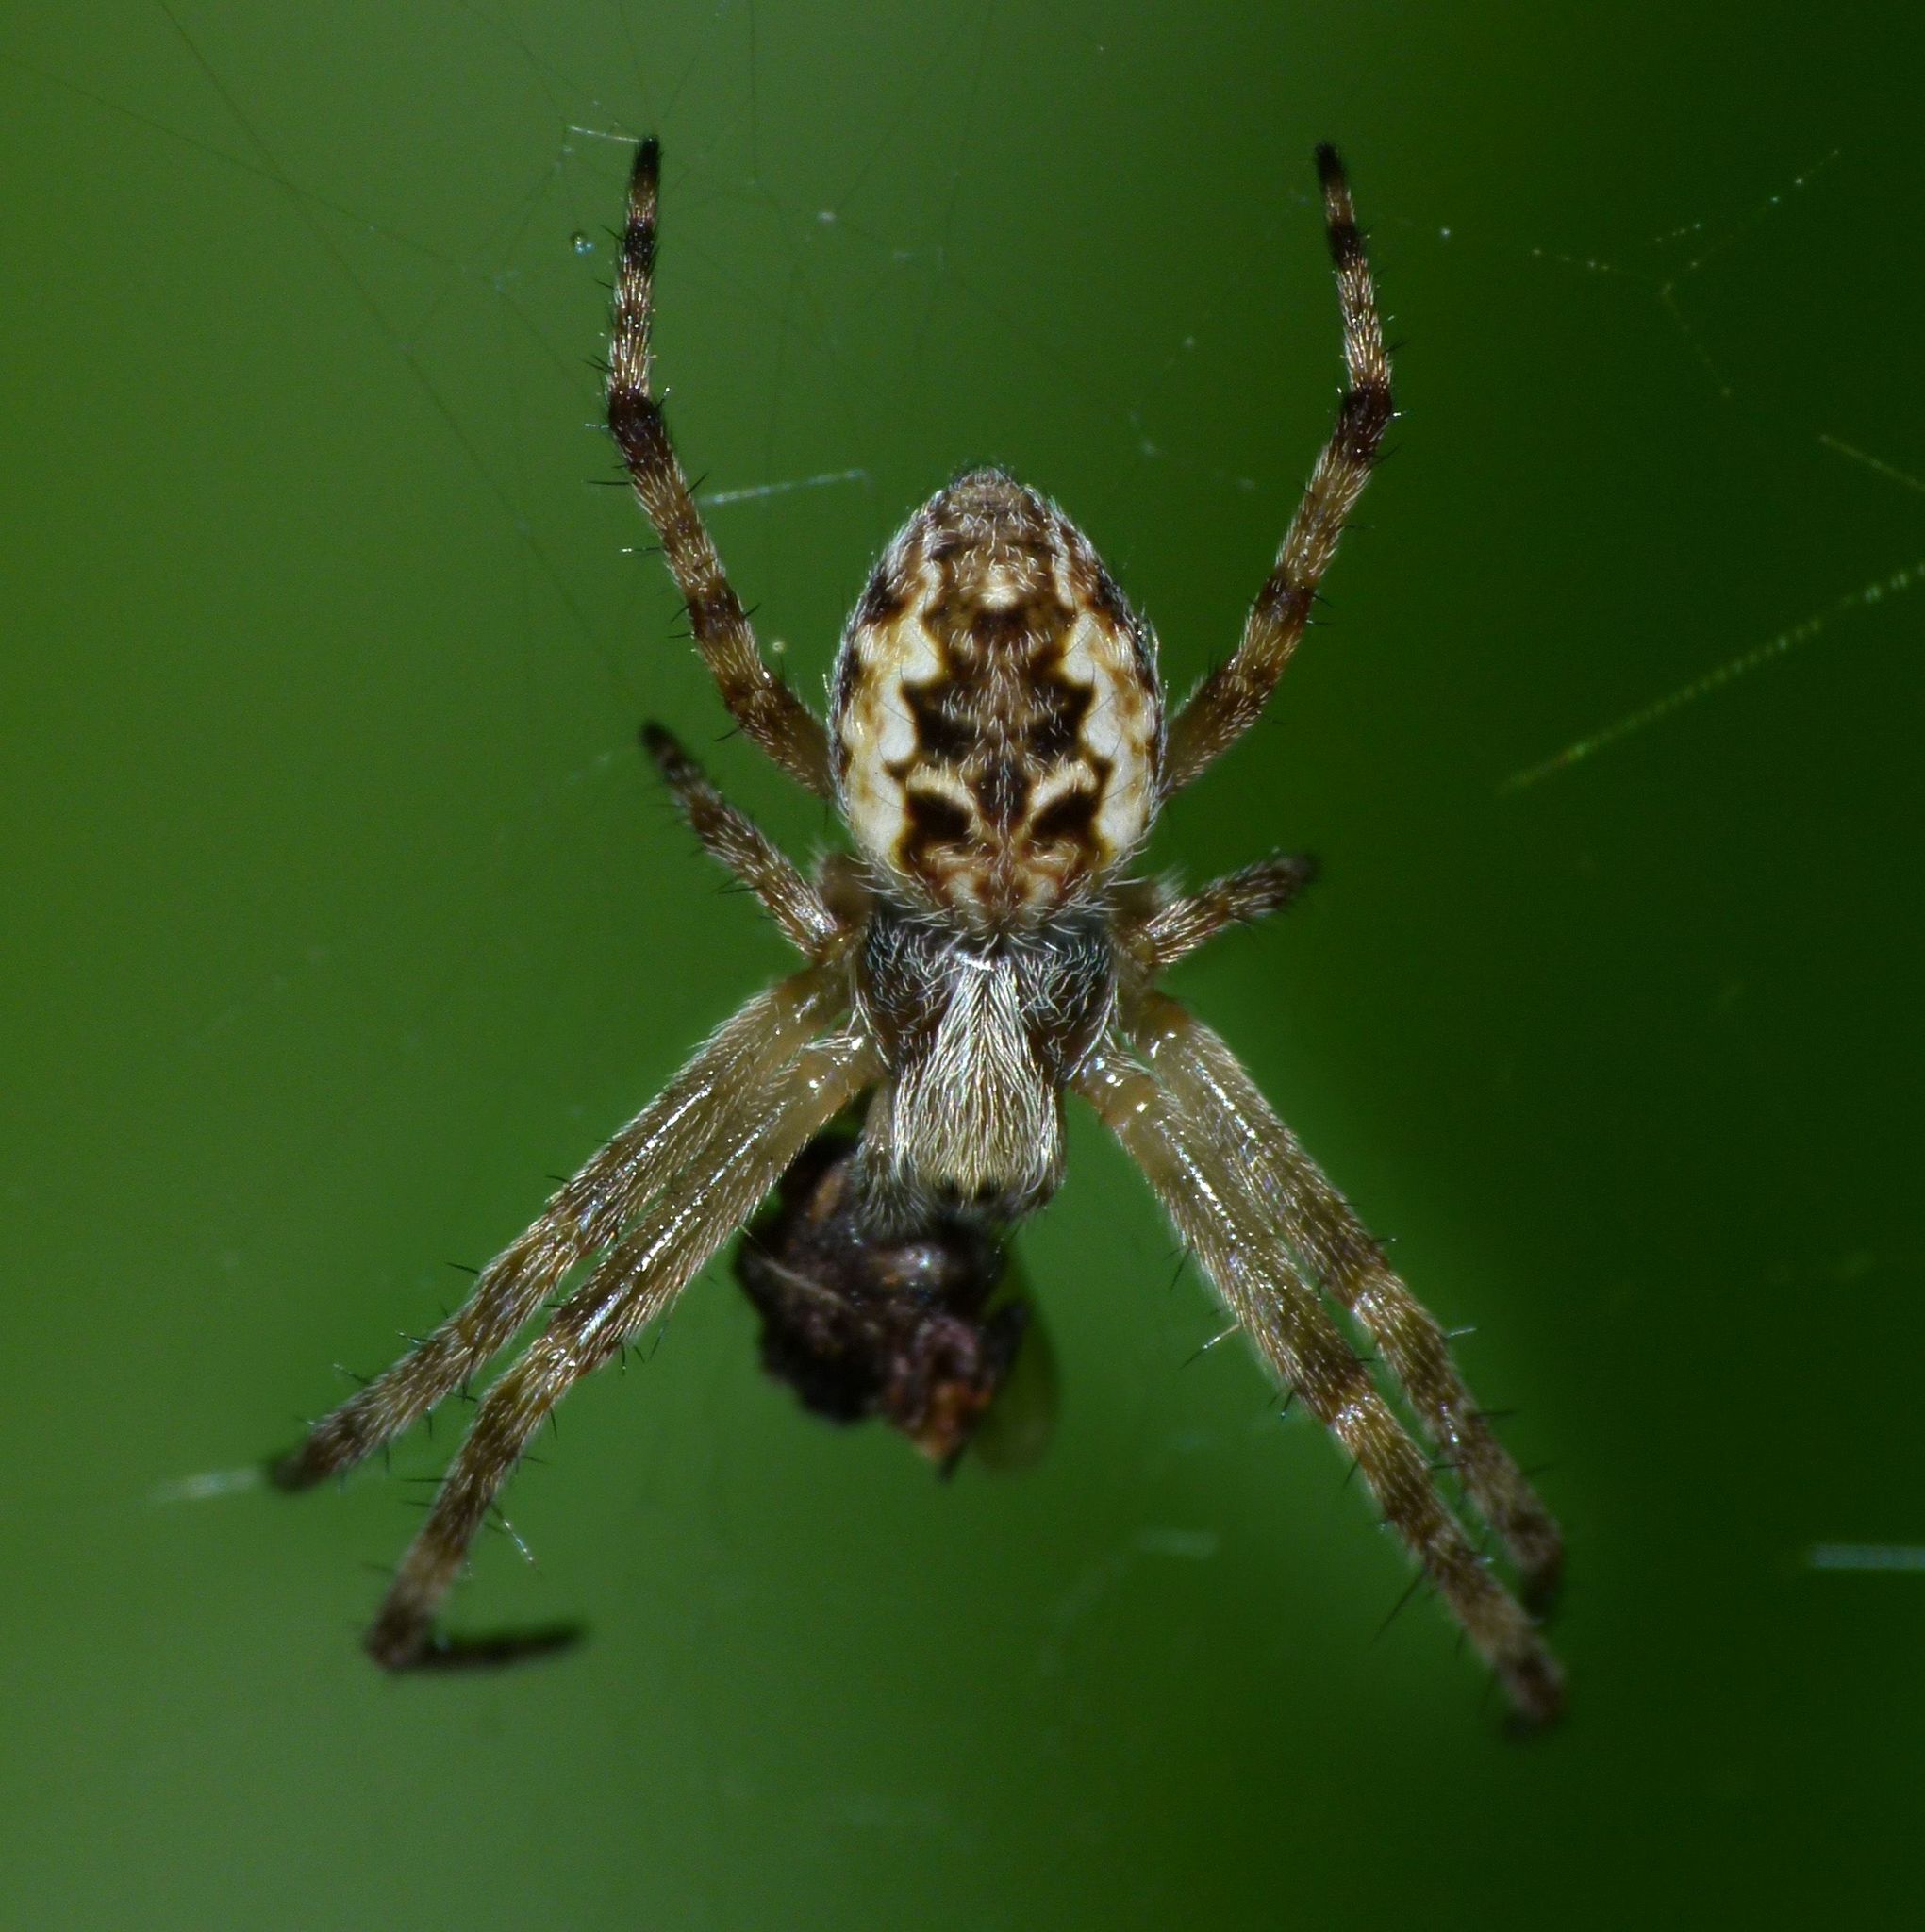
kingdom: Animalia
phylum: Arthropoda
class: Arachnida
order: Araneae
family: Araneidae
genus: Salsa
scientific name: Salsa fuliginata
